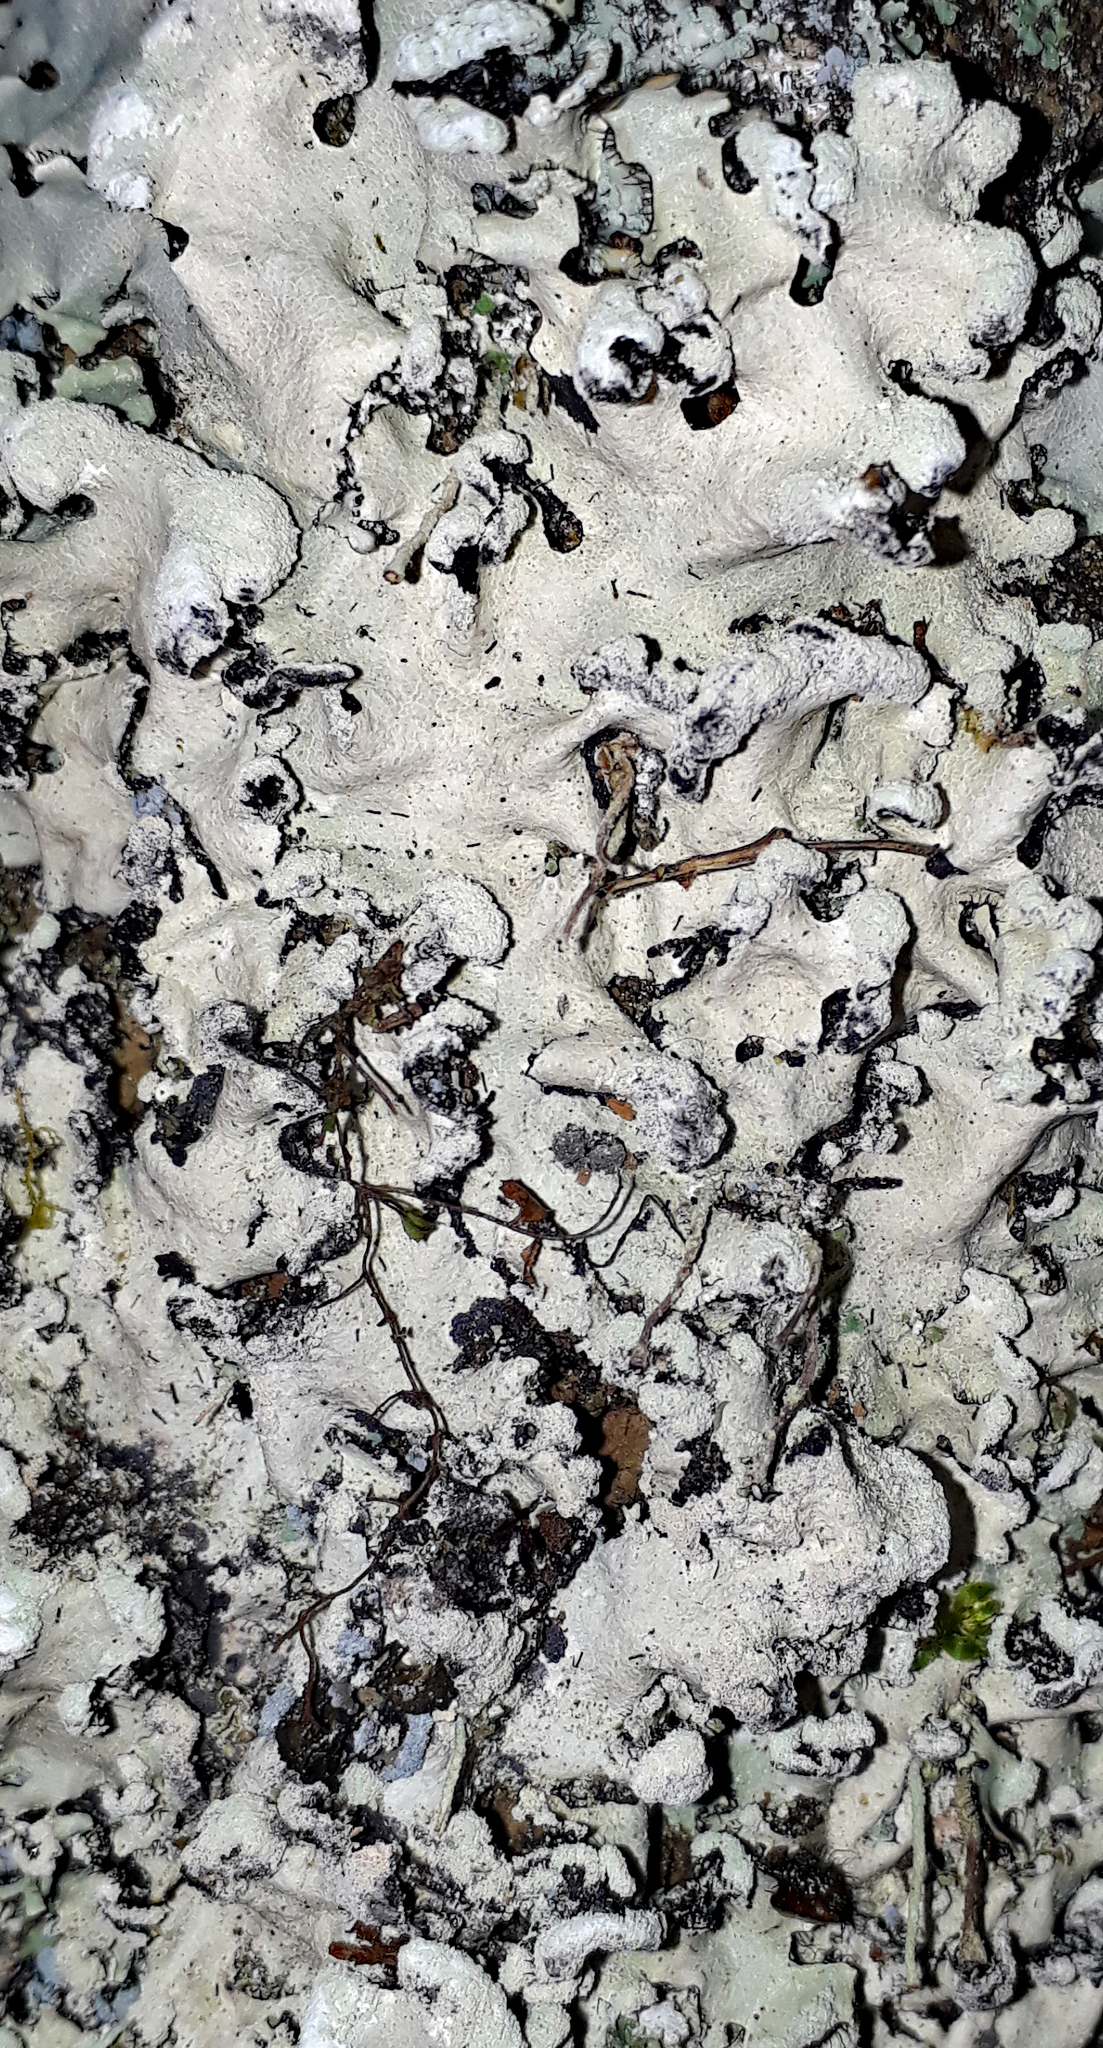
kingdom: Fungi
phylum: Ascomycota
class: Lecanoromycetes
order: Lecanorales
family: Parmeliaceae
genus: Parmotrema
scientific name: Parmotrema perlatum
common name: Black stone flower
